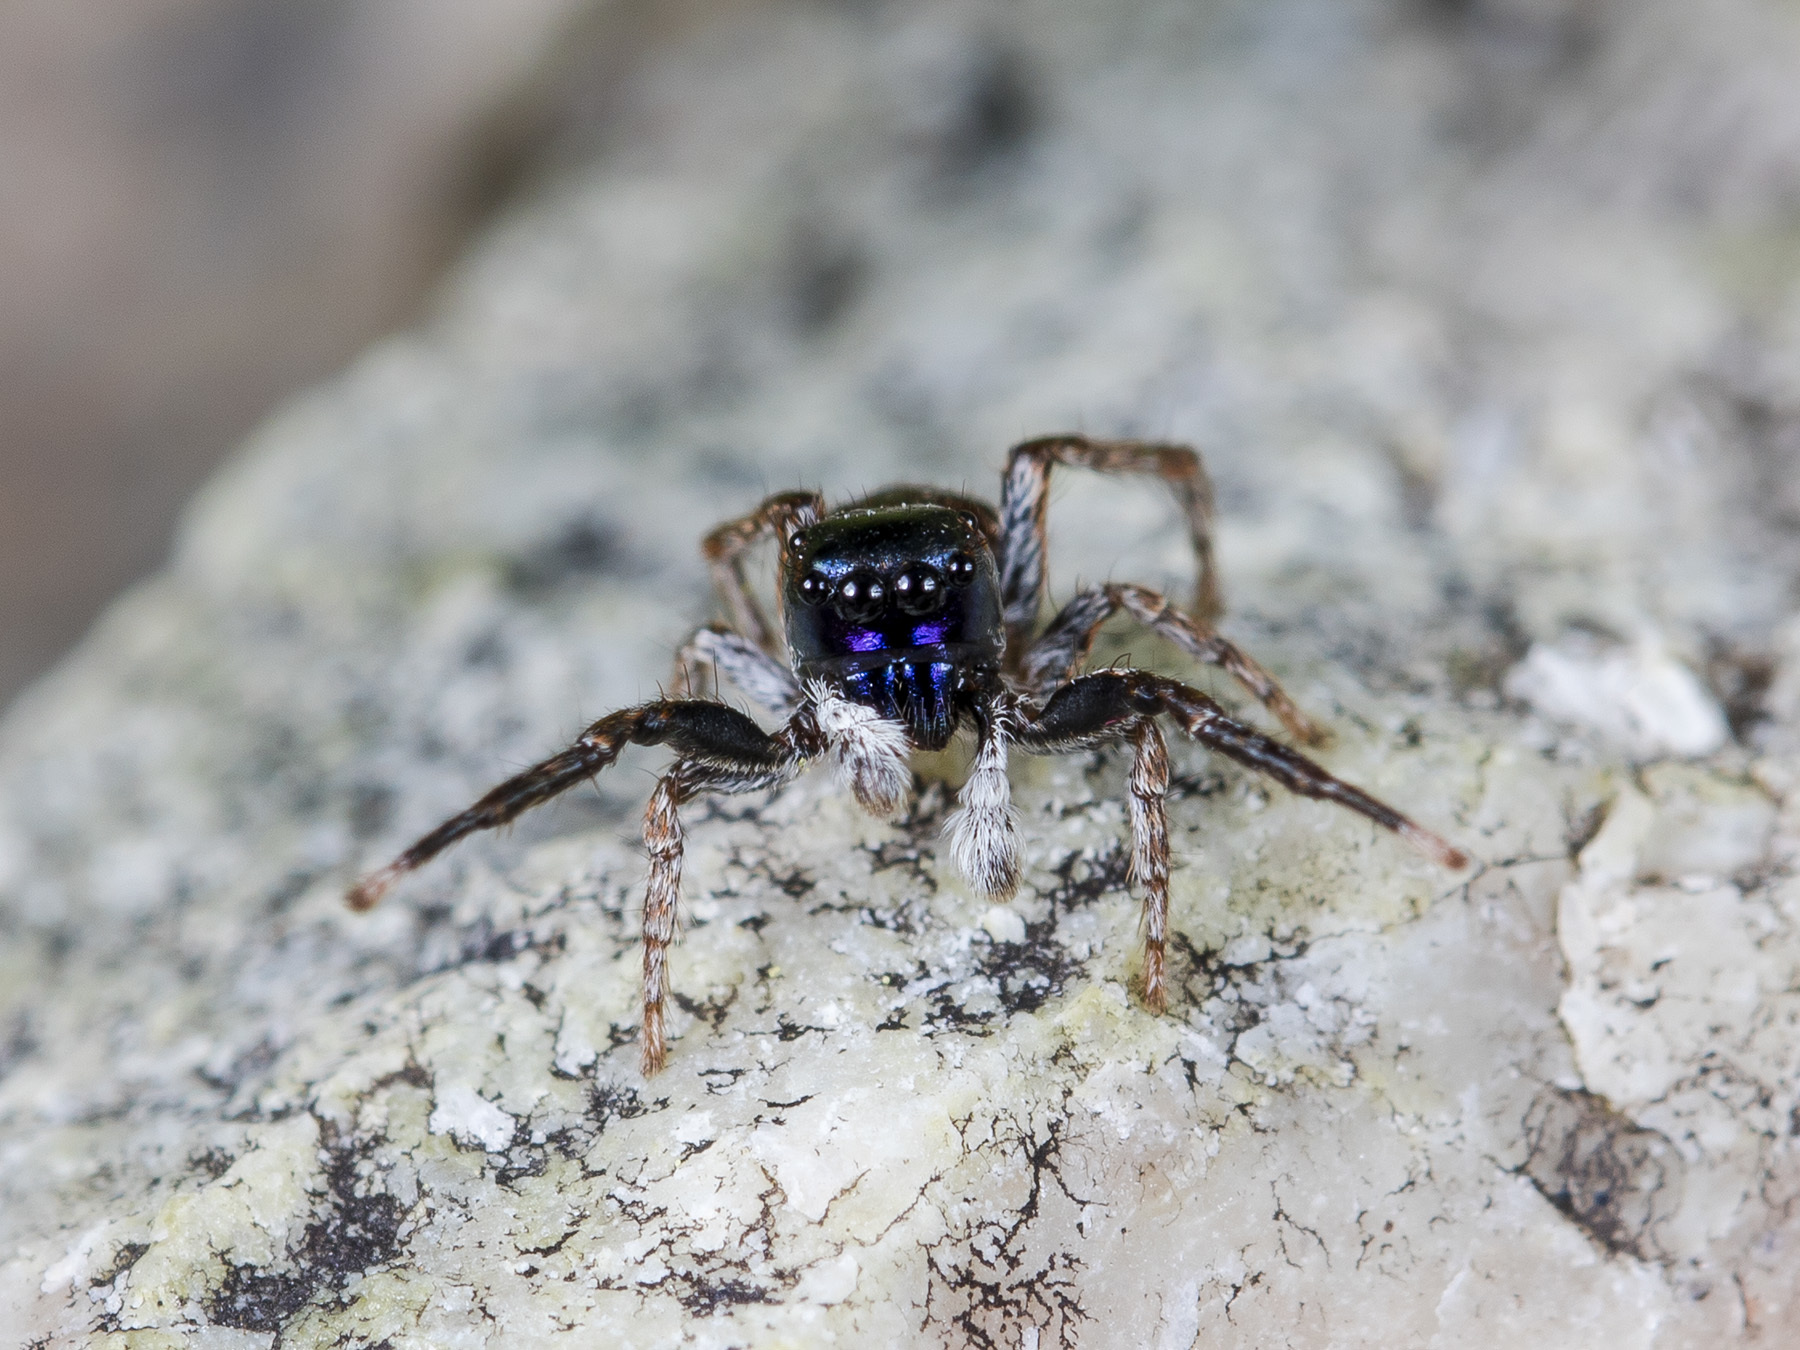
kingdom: Animalia
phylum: Arthropoda
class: Arachnida
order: Araneae
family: Salticidae
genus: Attulus
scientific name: Attulus mirandus
